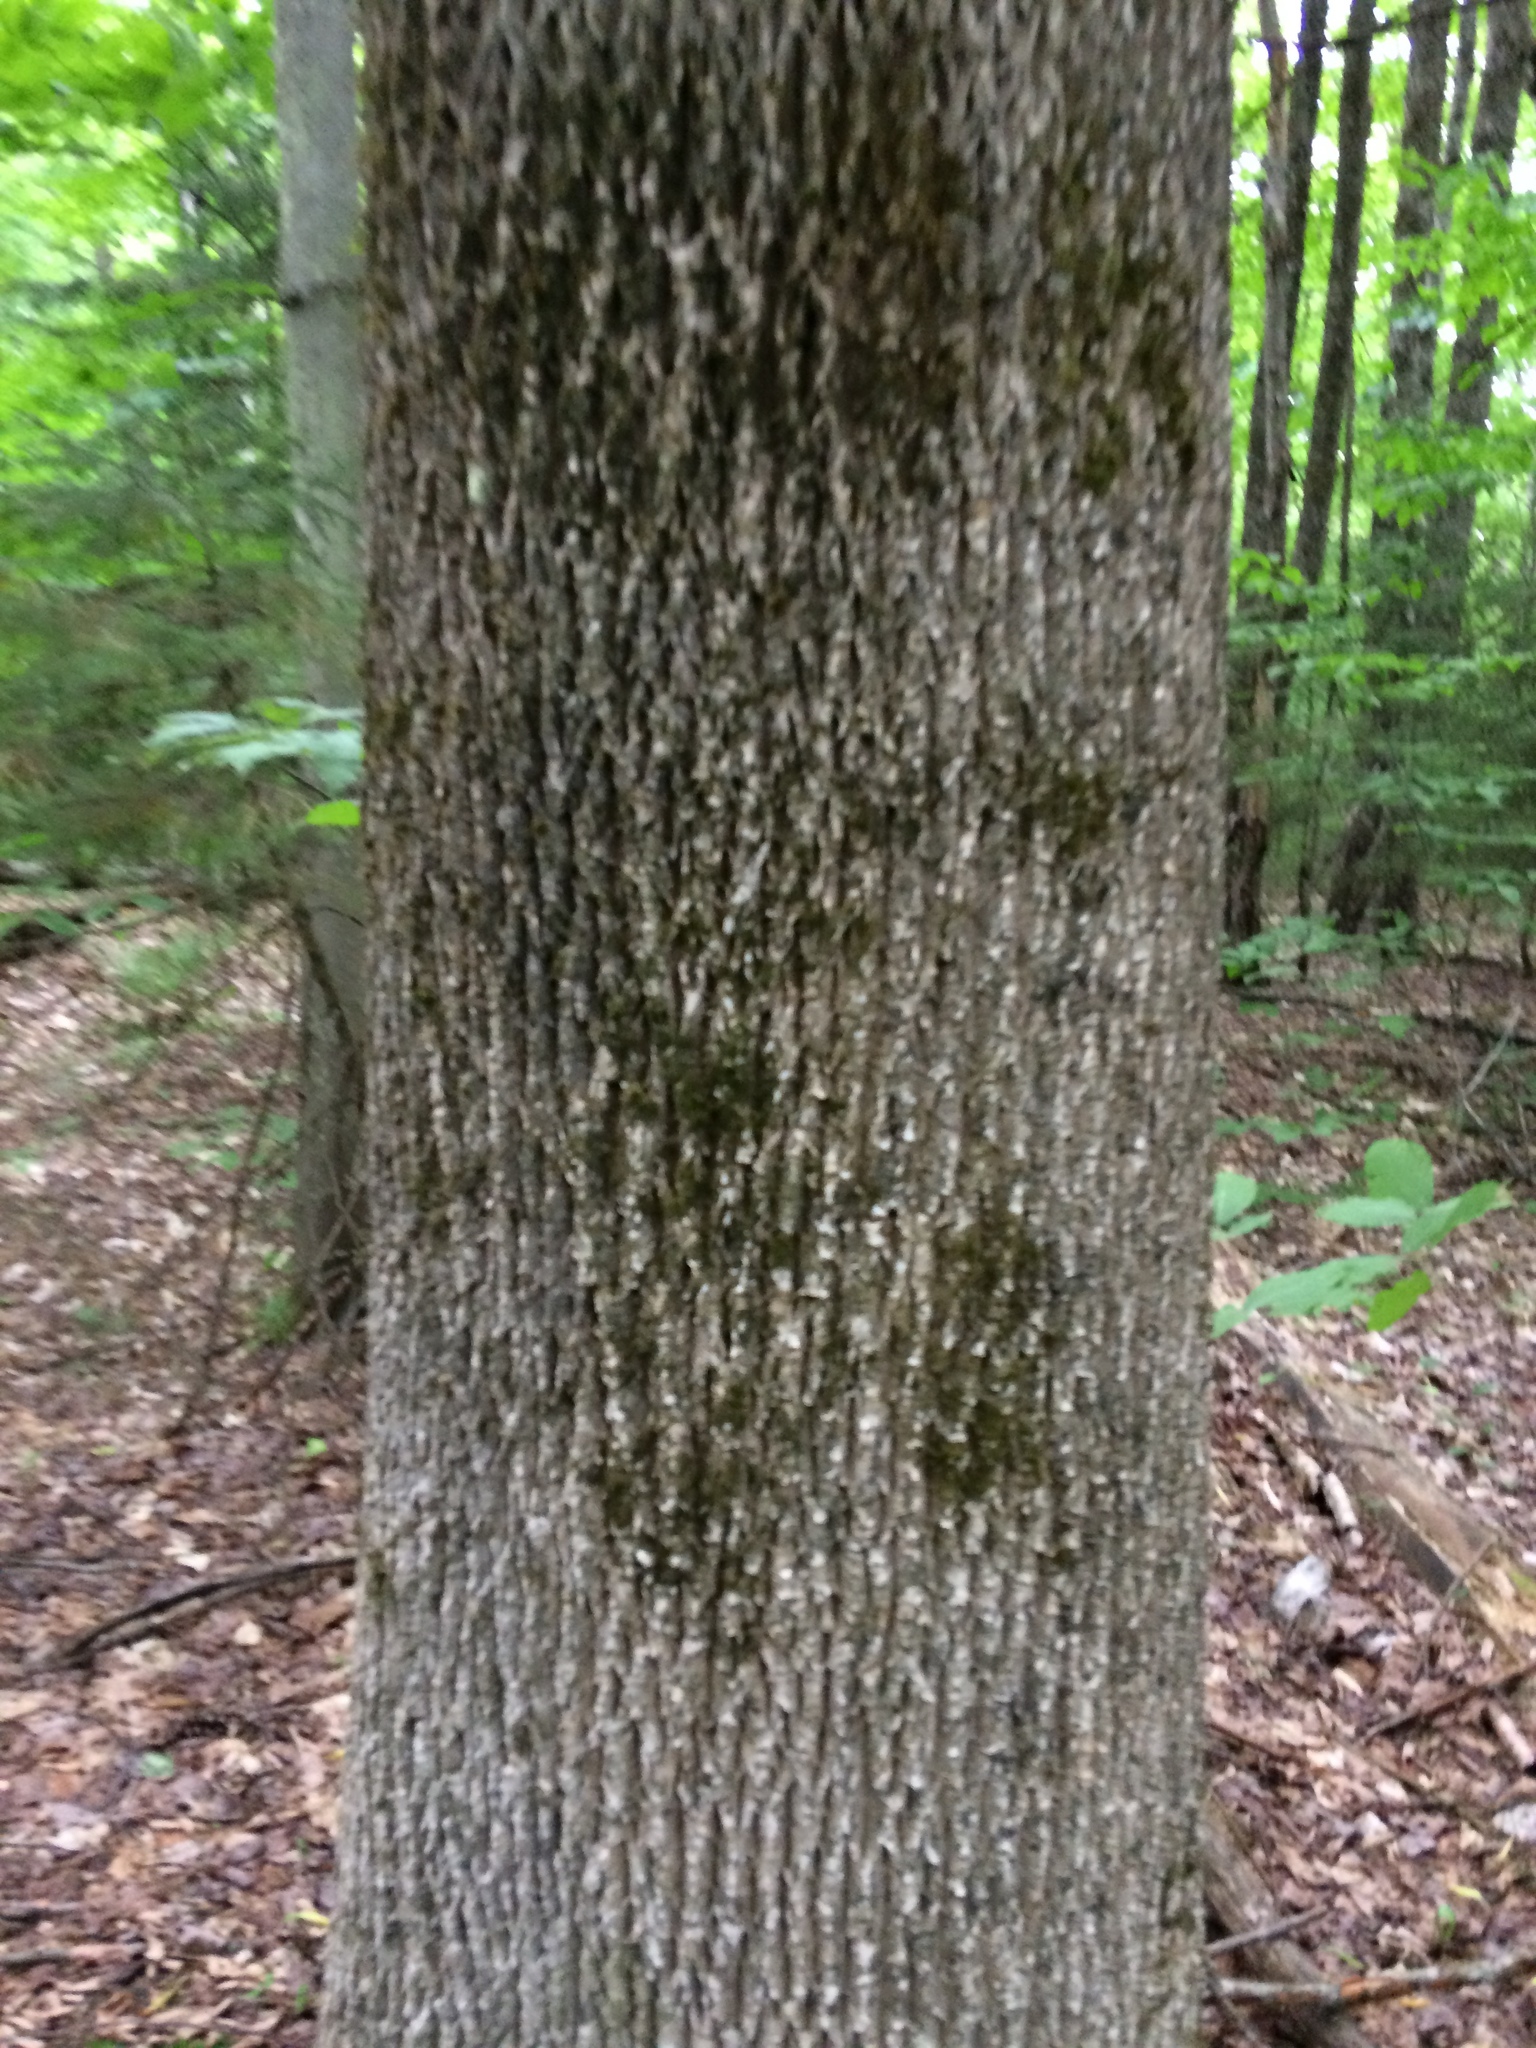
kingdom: Plantae
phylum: Tracheophyta
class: Magnoliopsida
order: Lamiales
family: Oleaceae
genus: Fraxinus
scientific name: Fraxinus americana
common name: White ash
